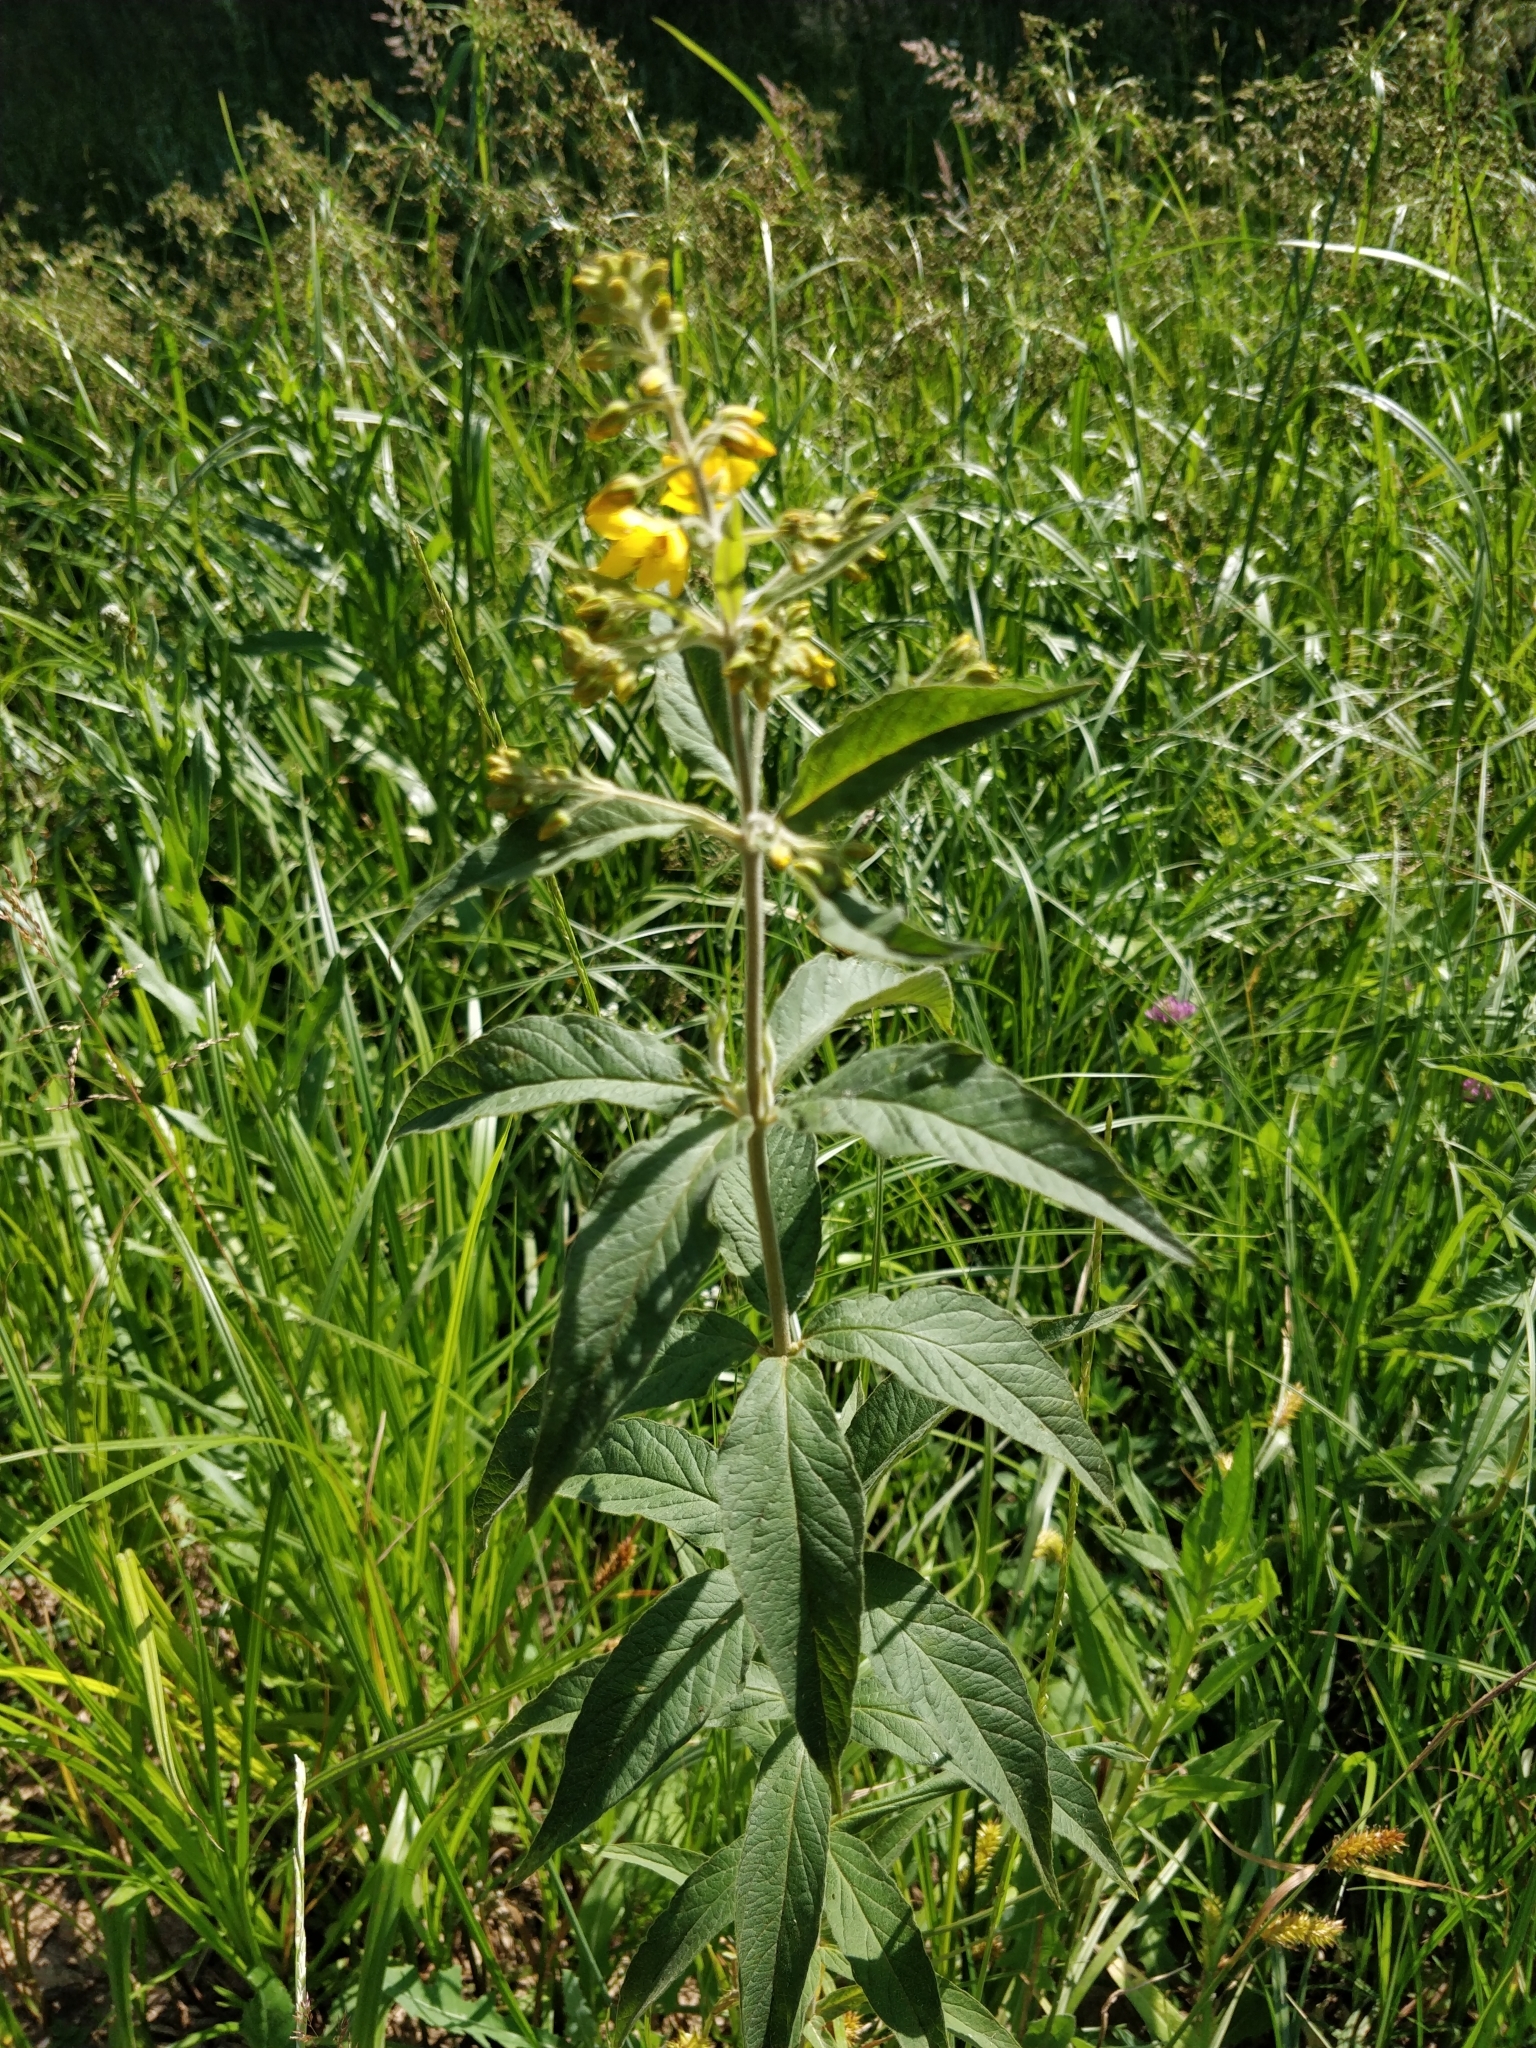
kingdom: Plantae
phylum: Tracheophyta
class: Magnoliopsida
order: Ericales
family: Primulaceae
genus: Lysimachia
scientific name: Lysimachia vulgaris
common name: Yellow loosestrife
